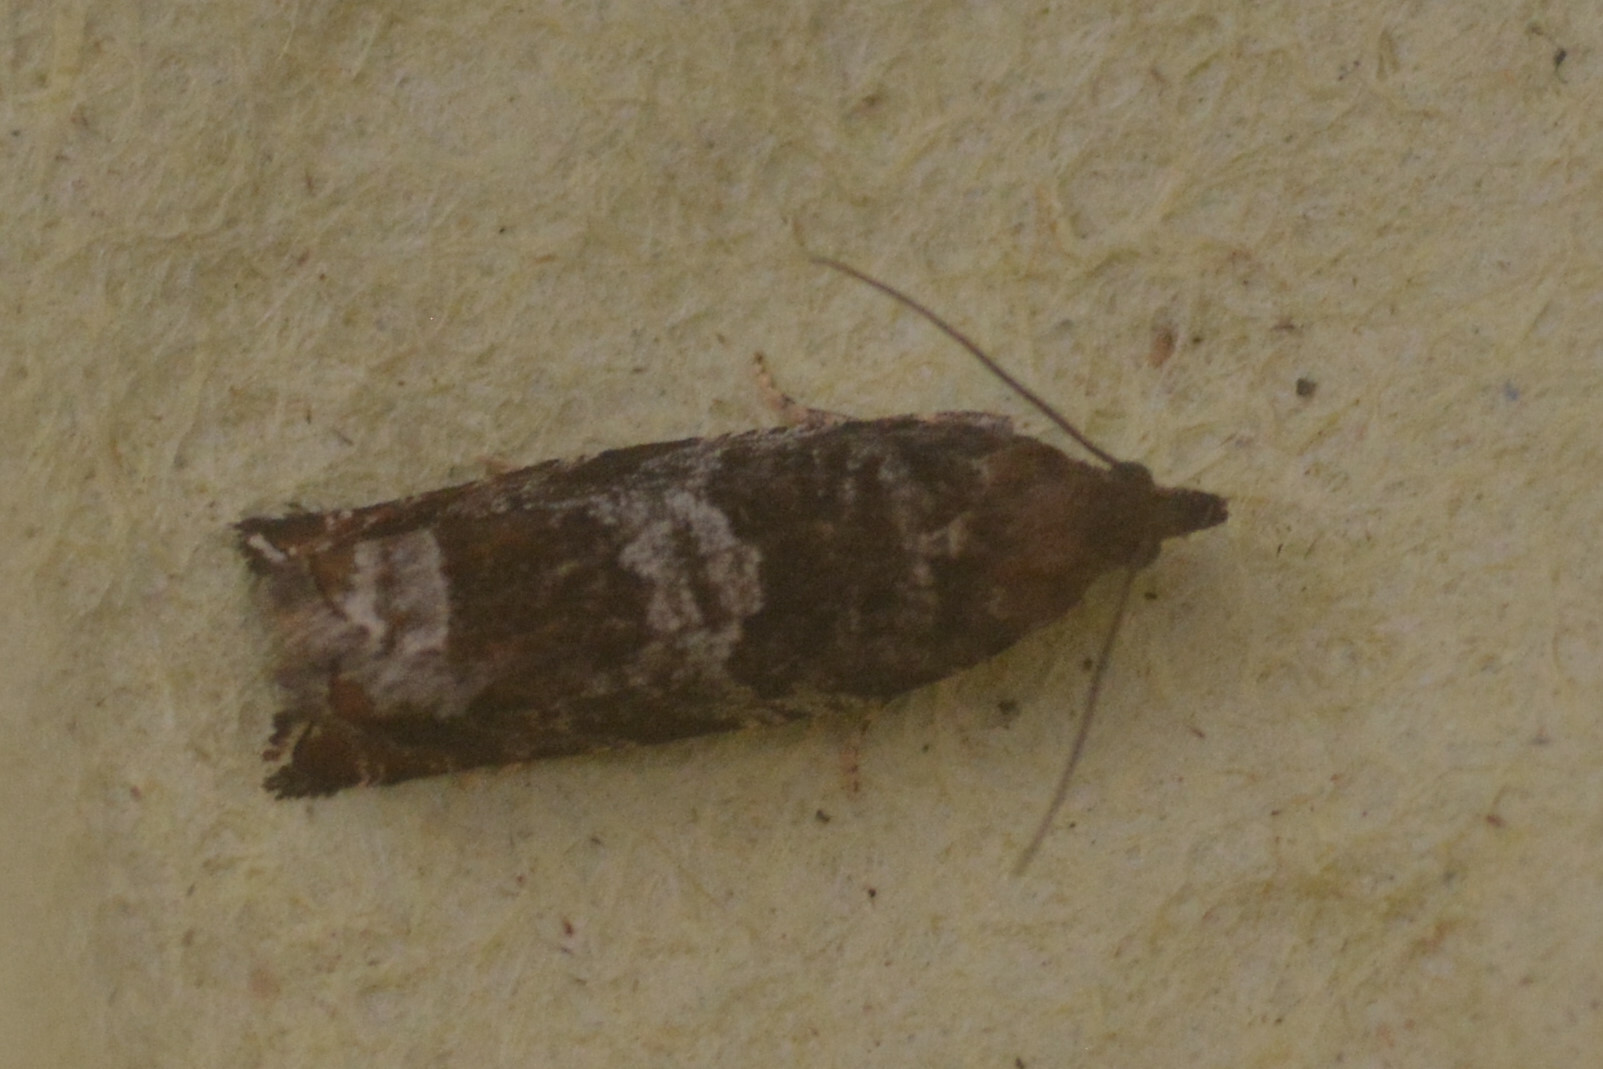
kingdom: Animalia
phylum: Arthropoda
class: Insecta
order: Lepidoptera
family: Tortricidae
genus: Ancylis
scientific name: Ancylis achatana
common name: Triangle-marked roller
